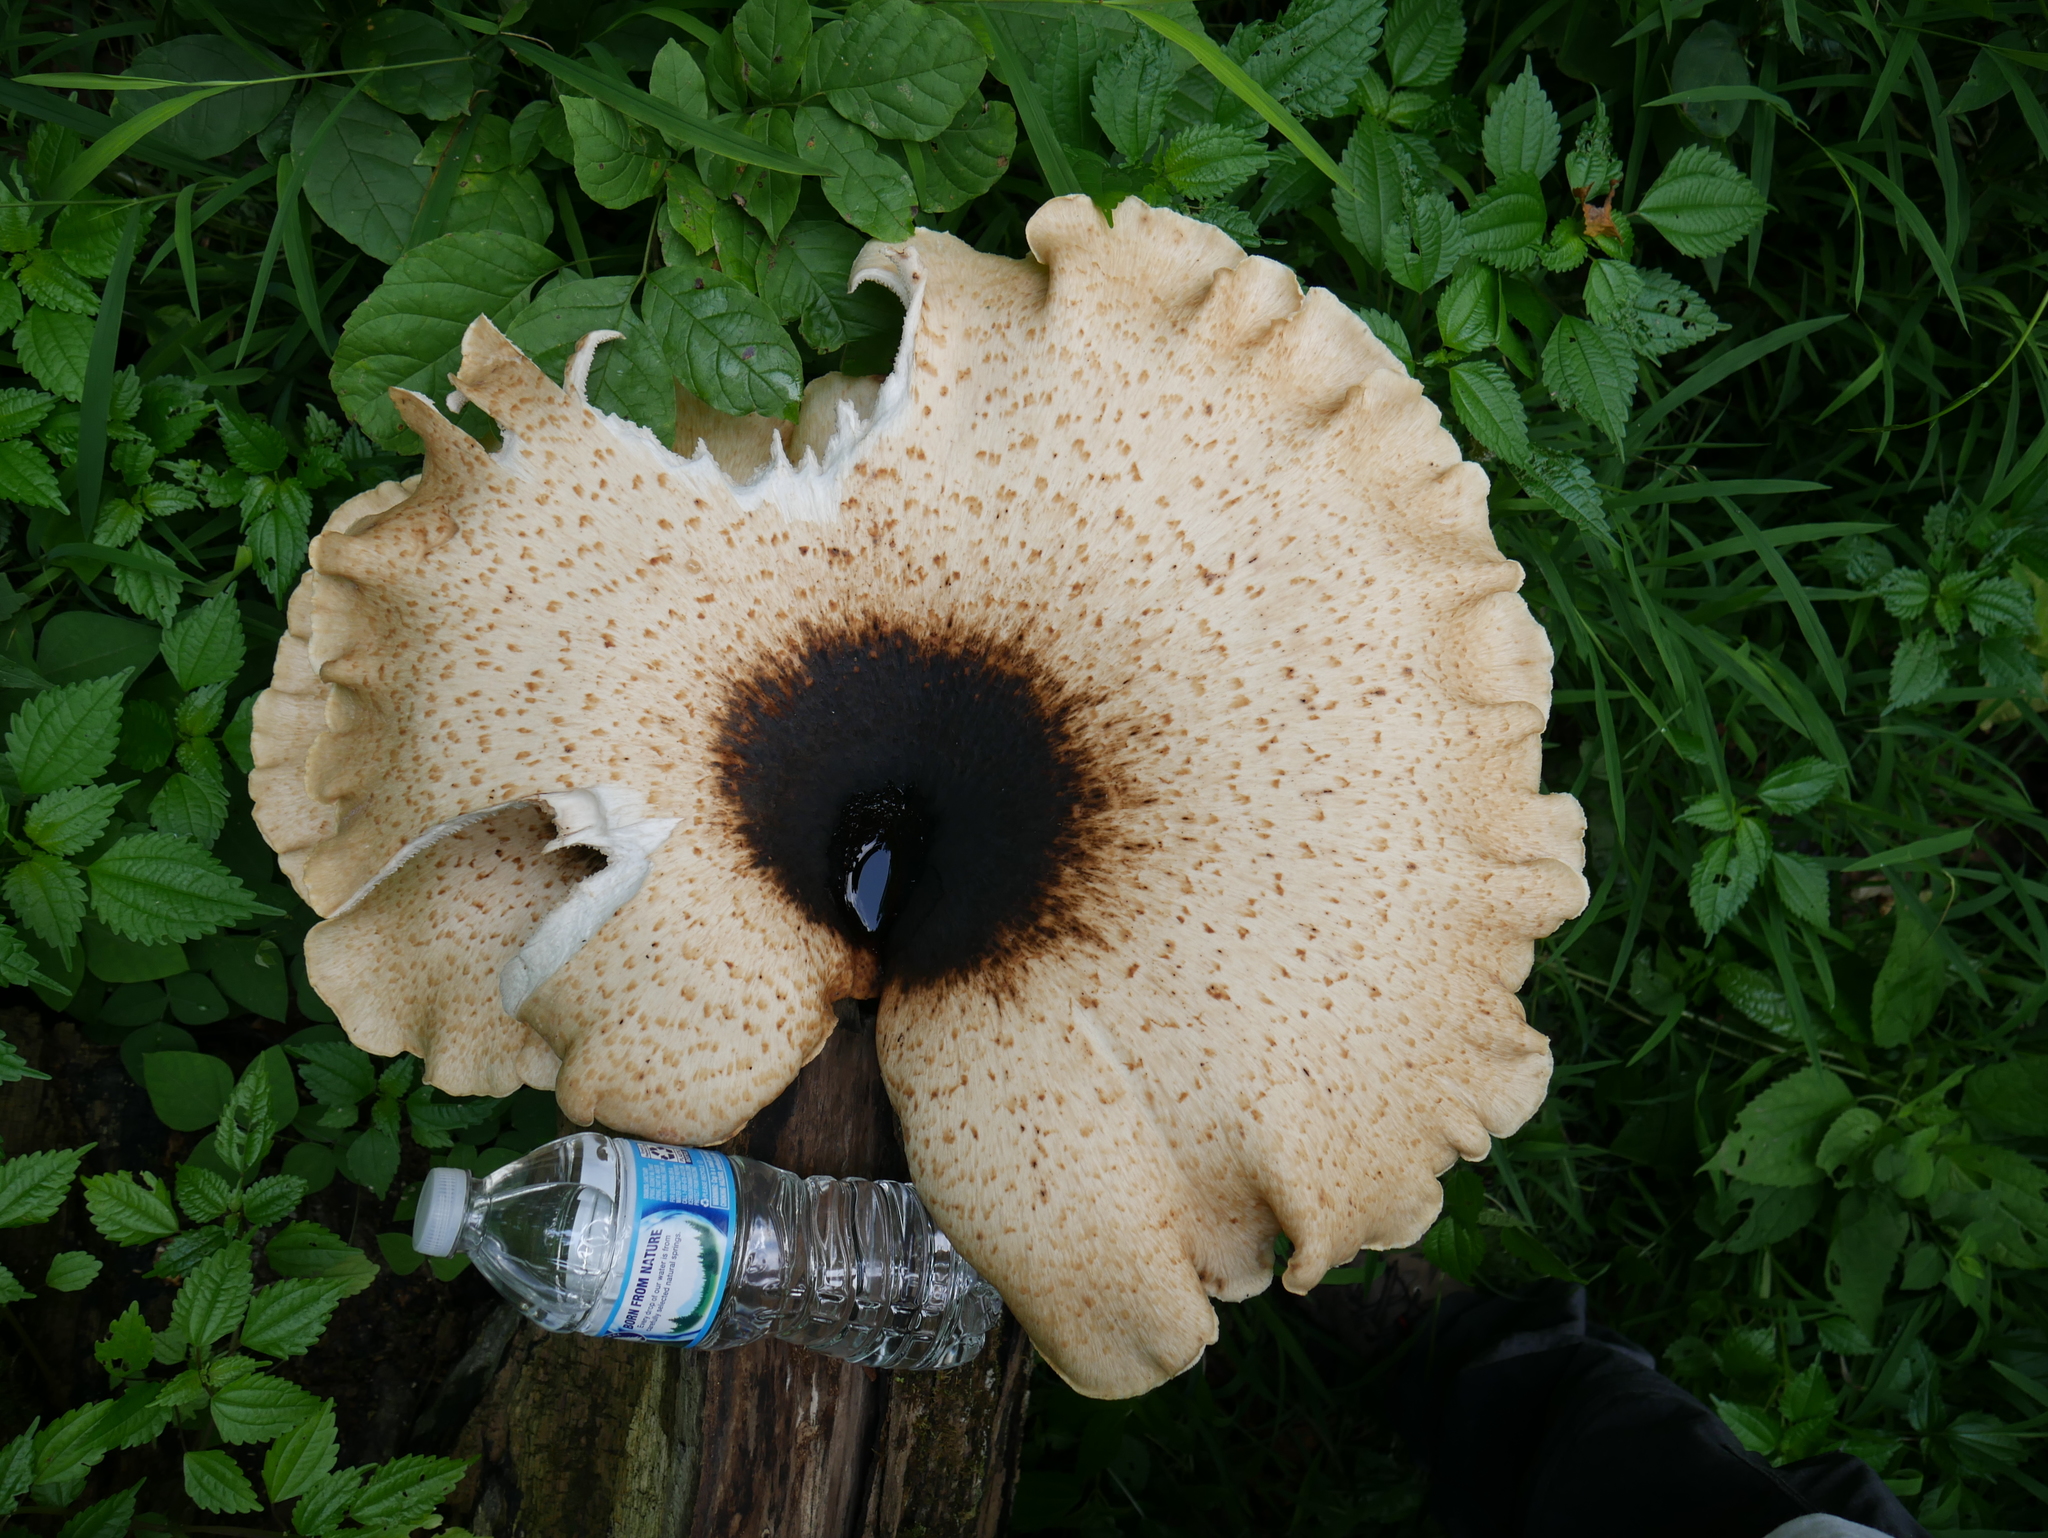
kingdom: Fungi
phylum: Basidiomycota
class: Agaricomycetes
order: Polyporales
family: Polyporaceae
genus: Cerioporus
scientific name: Cerioporus squamosus
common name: Dryad's saddle
